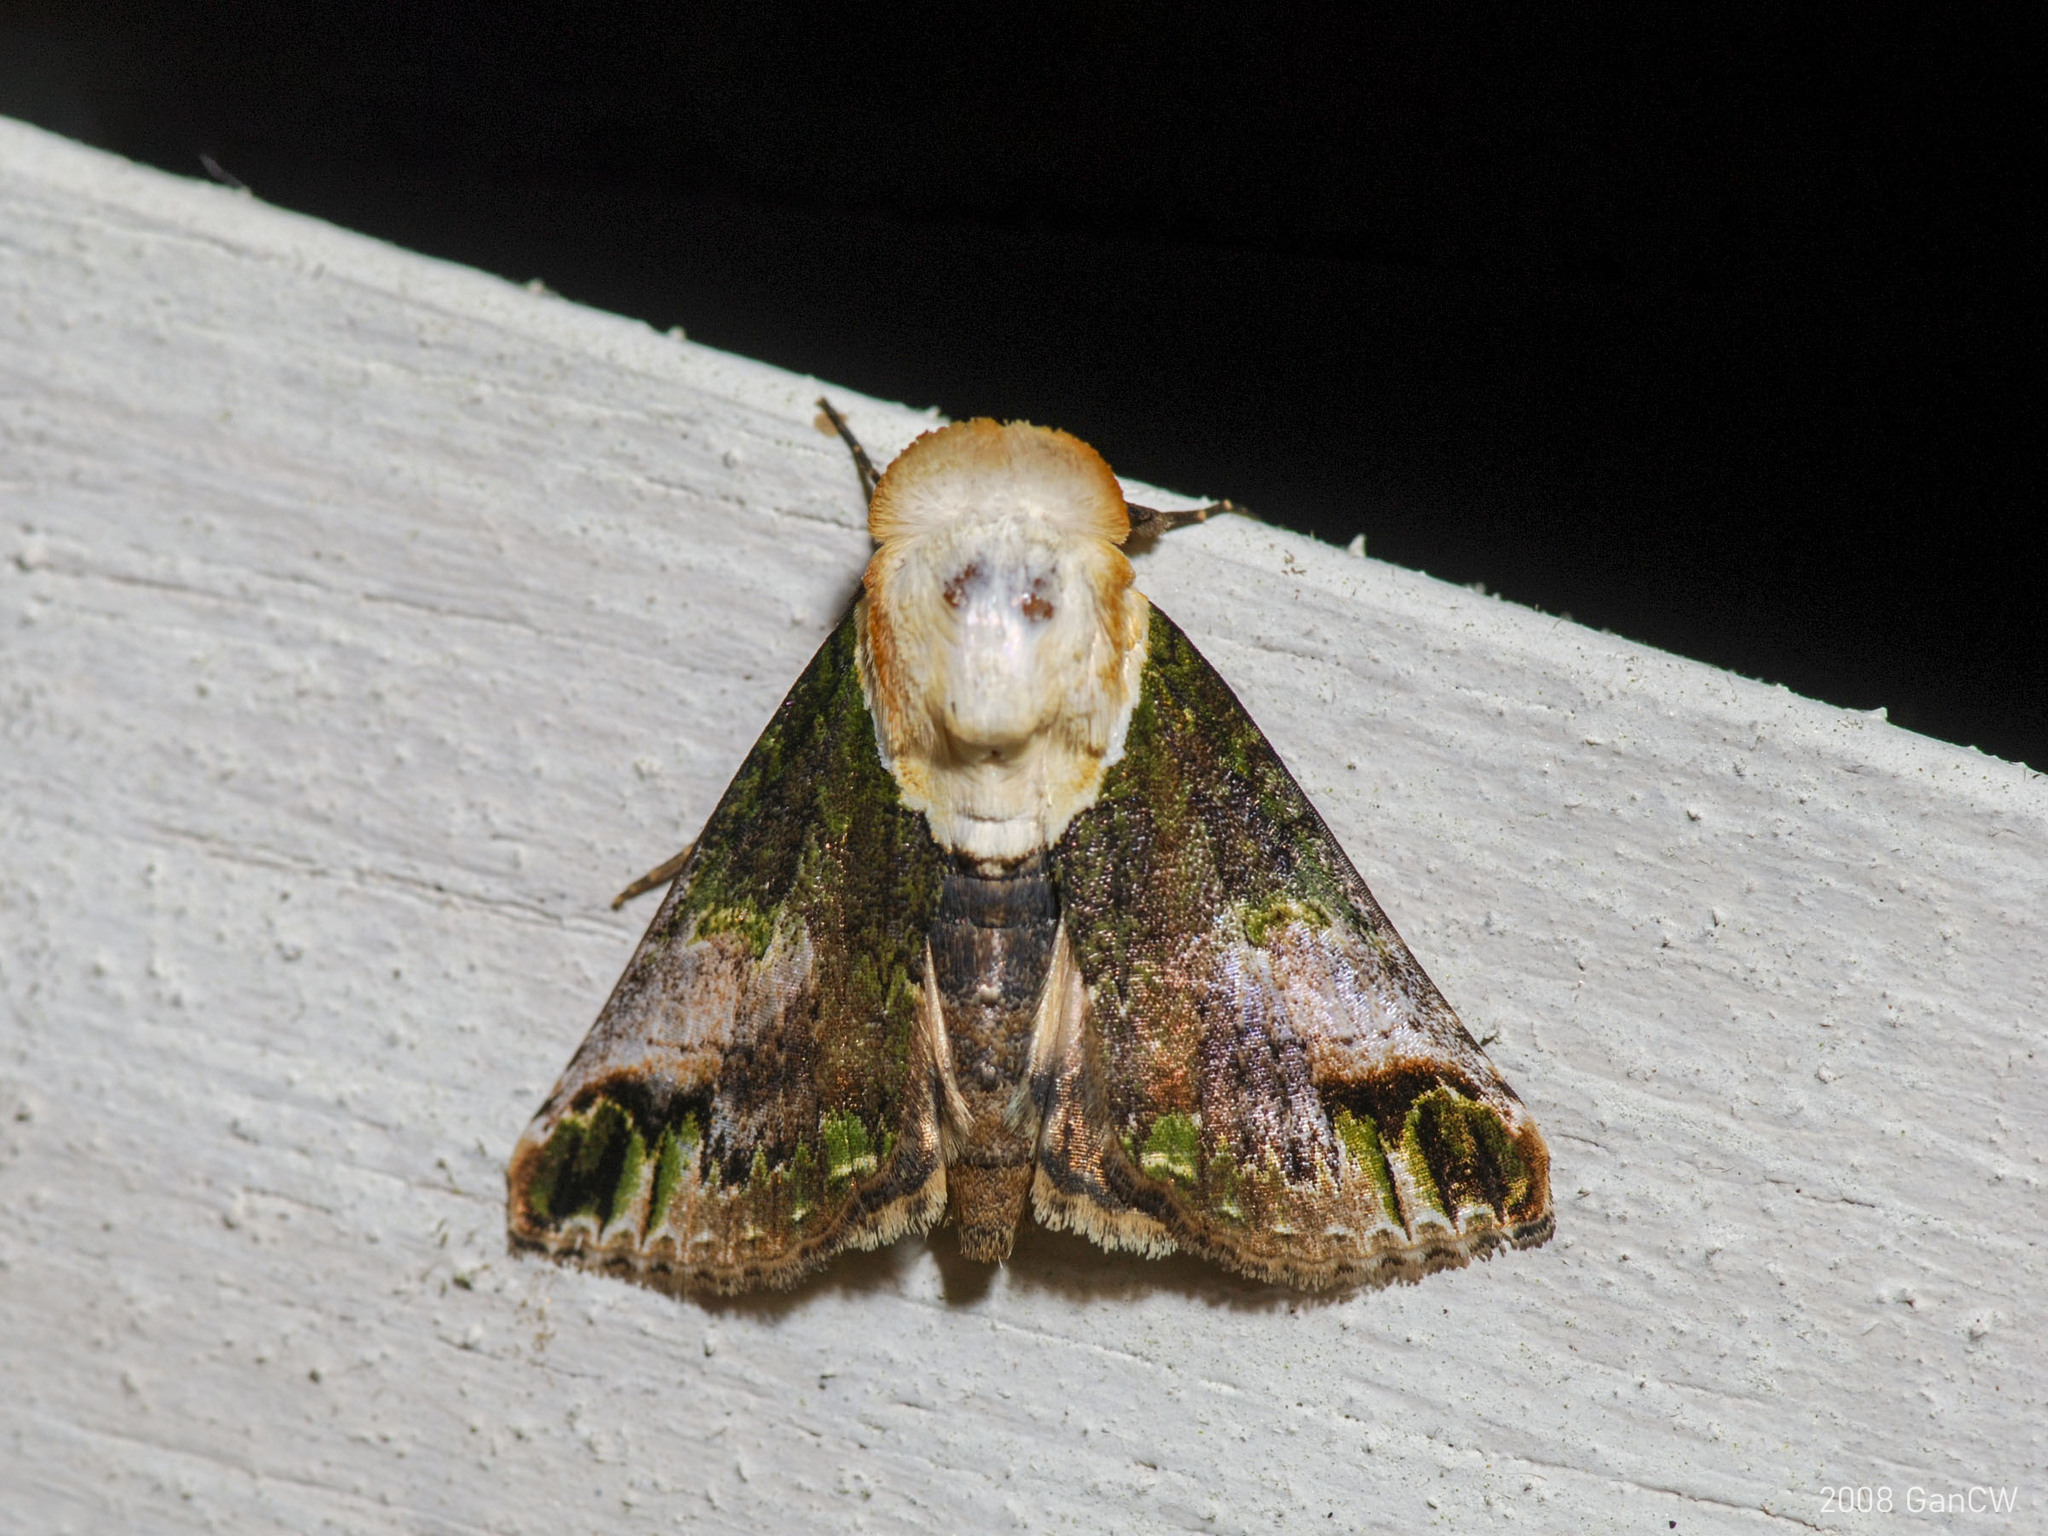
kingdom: Animalia
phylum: Arthropoda
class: Insecta
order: Lepidoptera
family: Nolidae
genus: Risoba
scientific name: Risoba prominens
